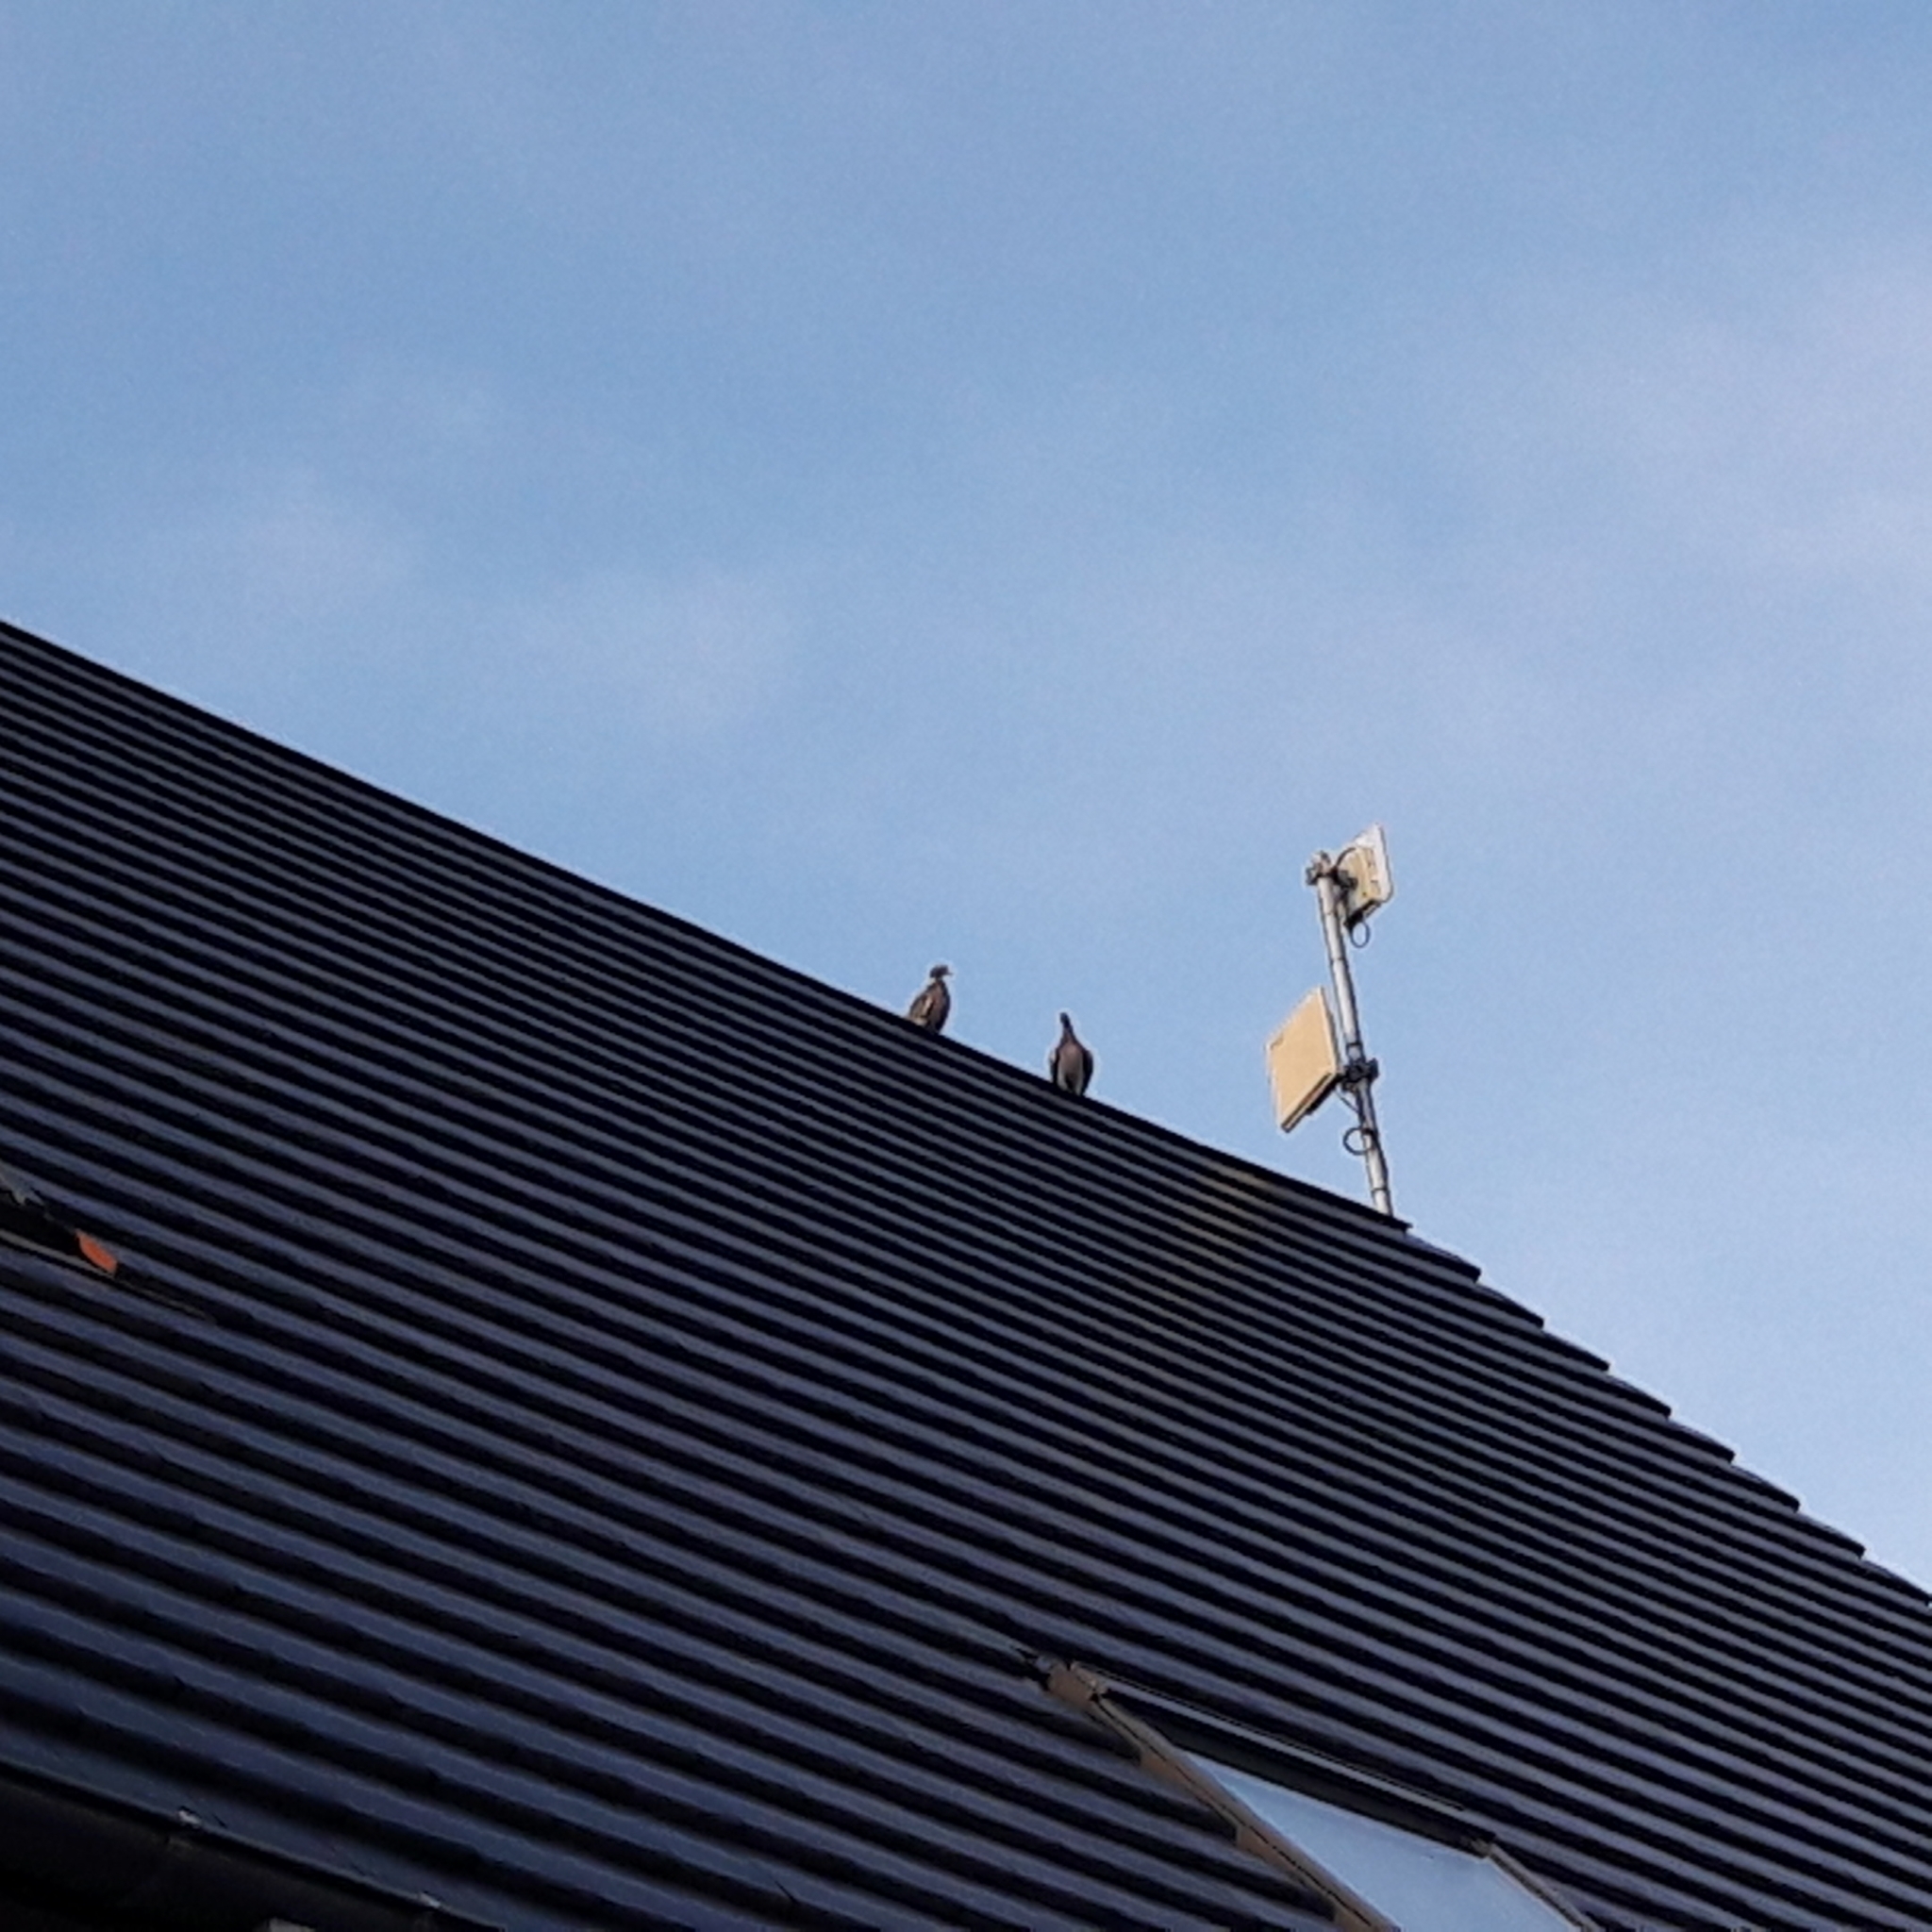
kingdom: Animalia
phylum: Chordata
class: Aves
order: Columbiformes
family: Columbidae
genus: Columba
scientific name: Columba palumbus
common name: Common wood pigeon
